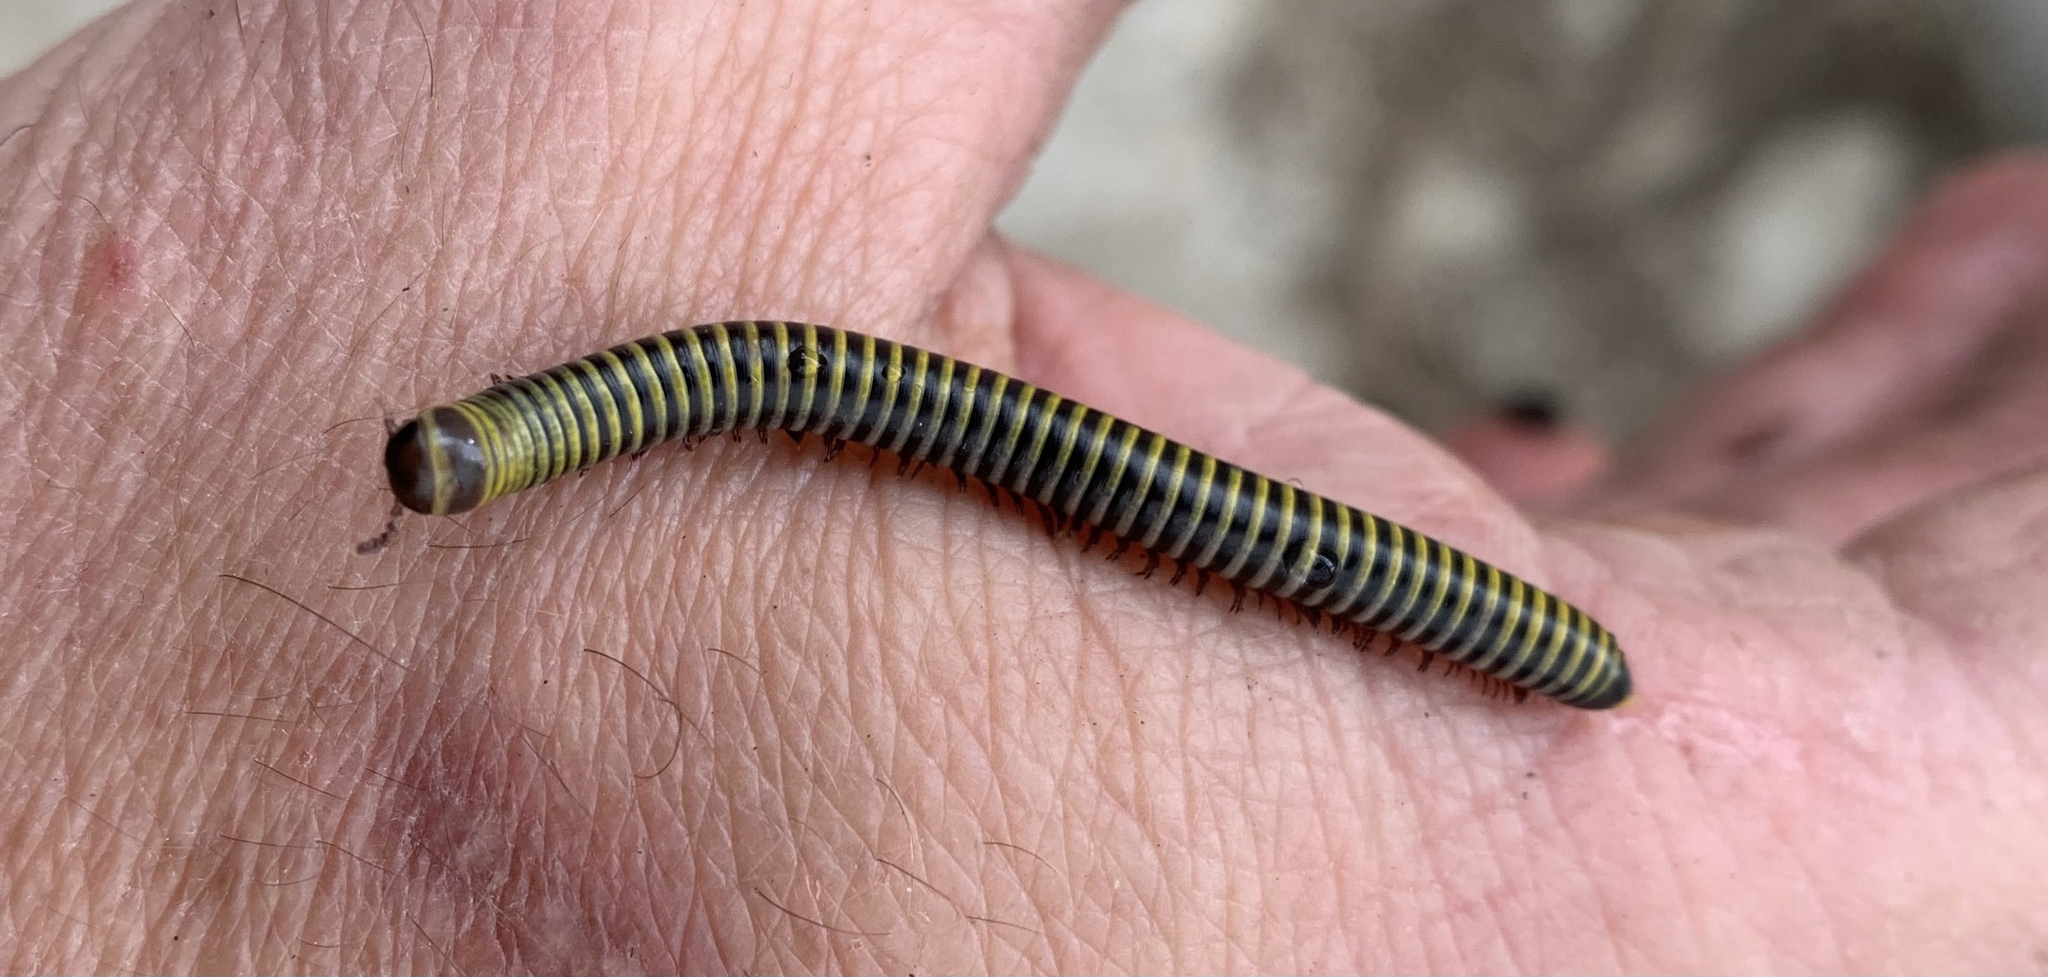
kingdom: Animalia
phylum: Arthropoda
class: Diplopoda
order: Spirobolida
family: Rhinocricidae
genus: Anadenobolus
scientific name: Anadenobolus monilicornis
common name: Caribbean millipede
